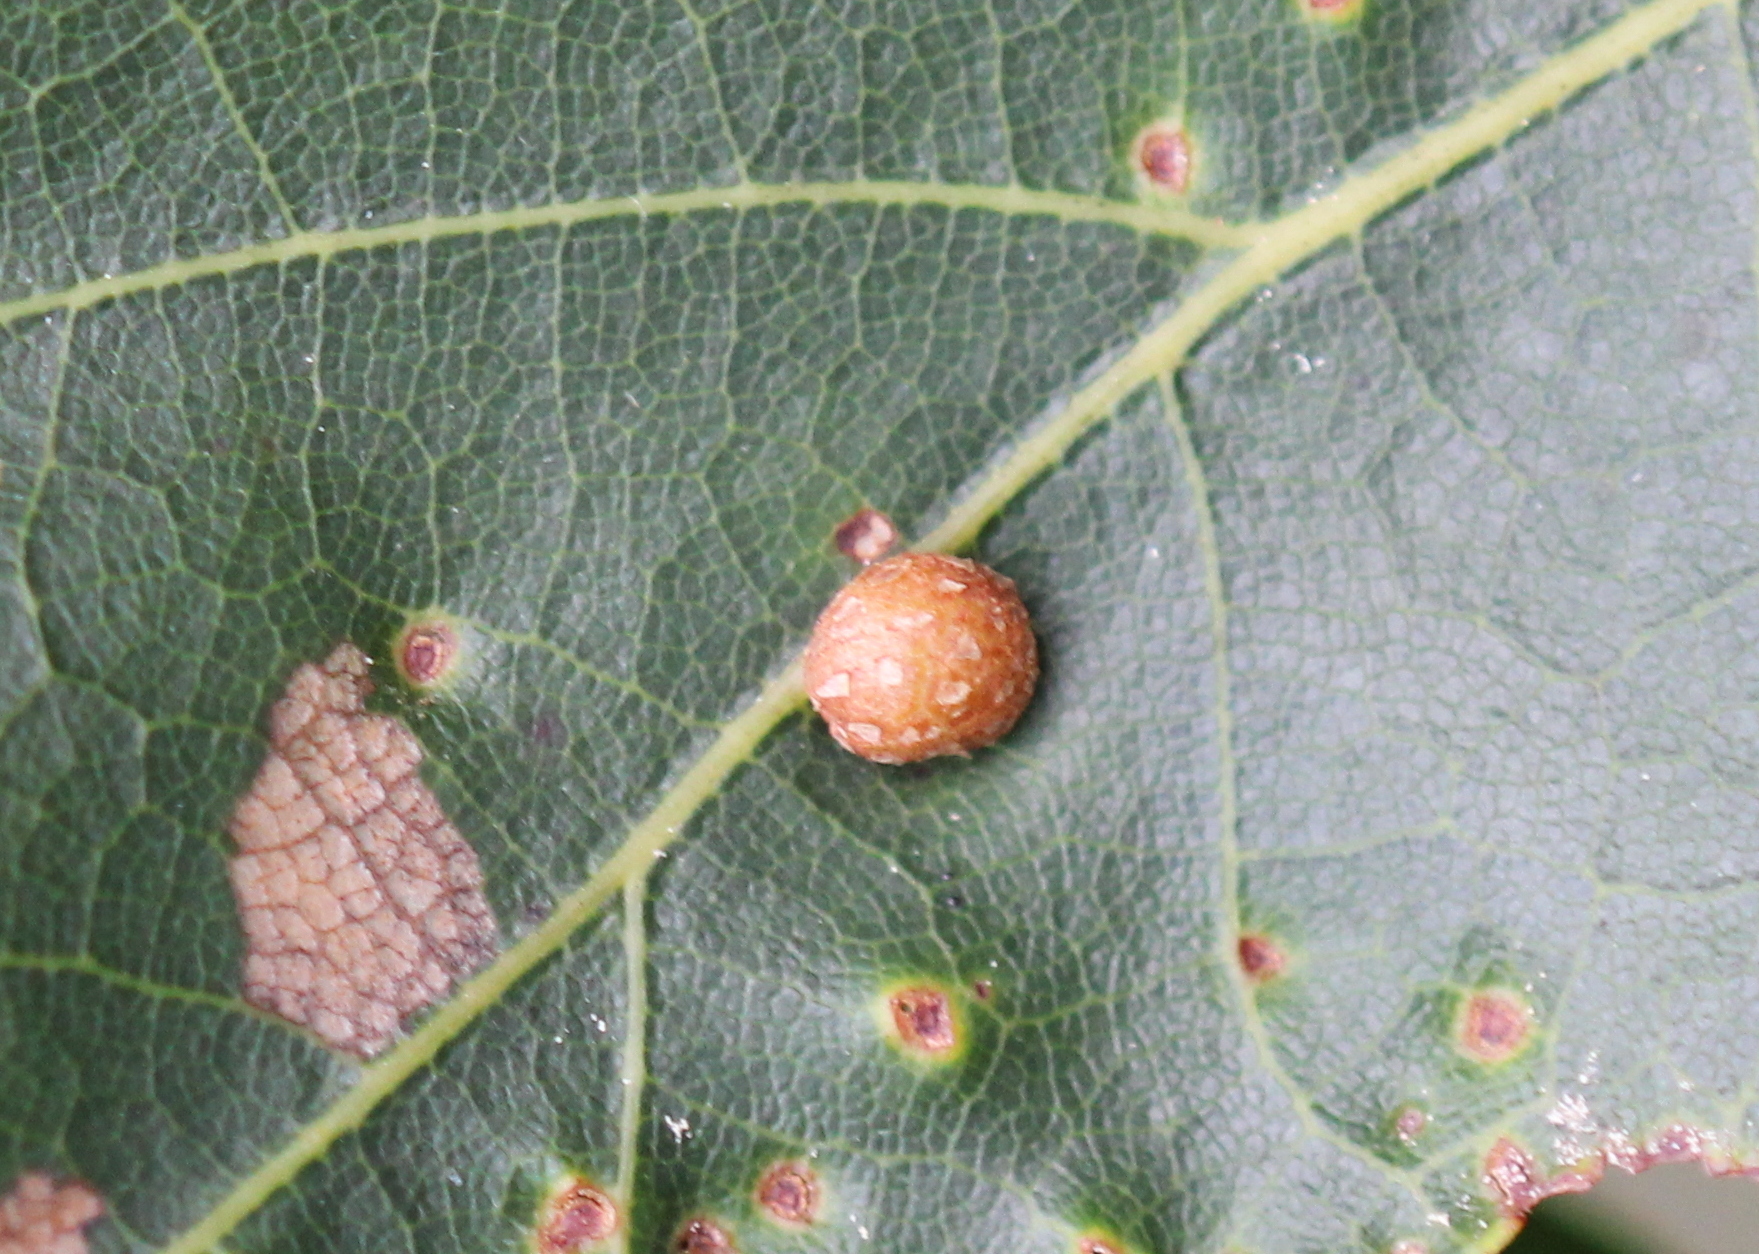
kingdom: Animalia
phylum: Arthropoda
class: Insecta
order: Diptera
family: Cecidomyiidae
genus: Polystepha
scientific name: Polystepha pilulae
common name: Oak leaf gall midge
